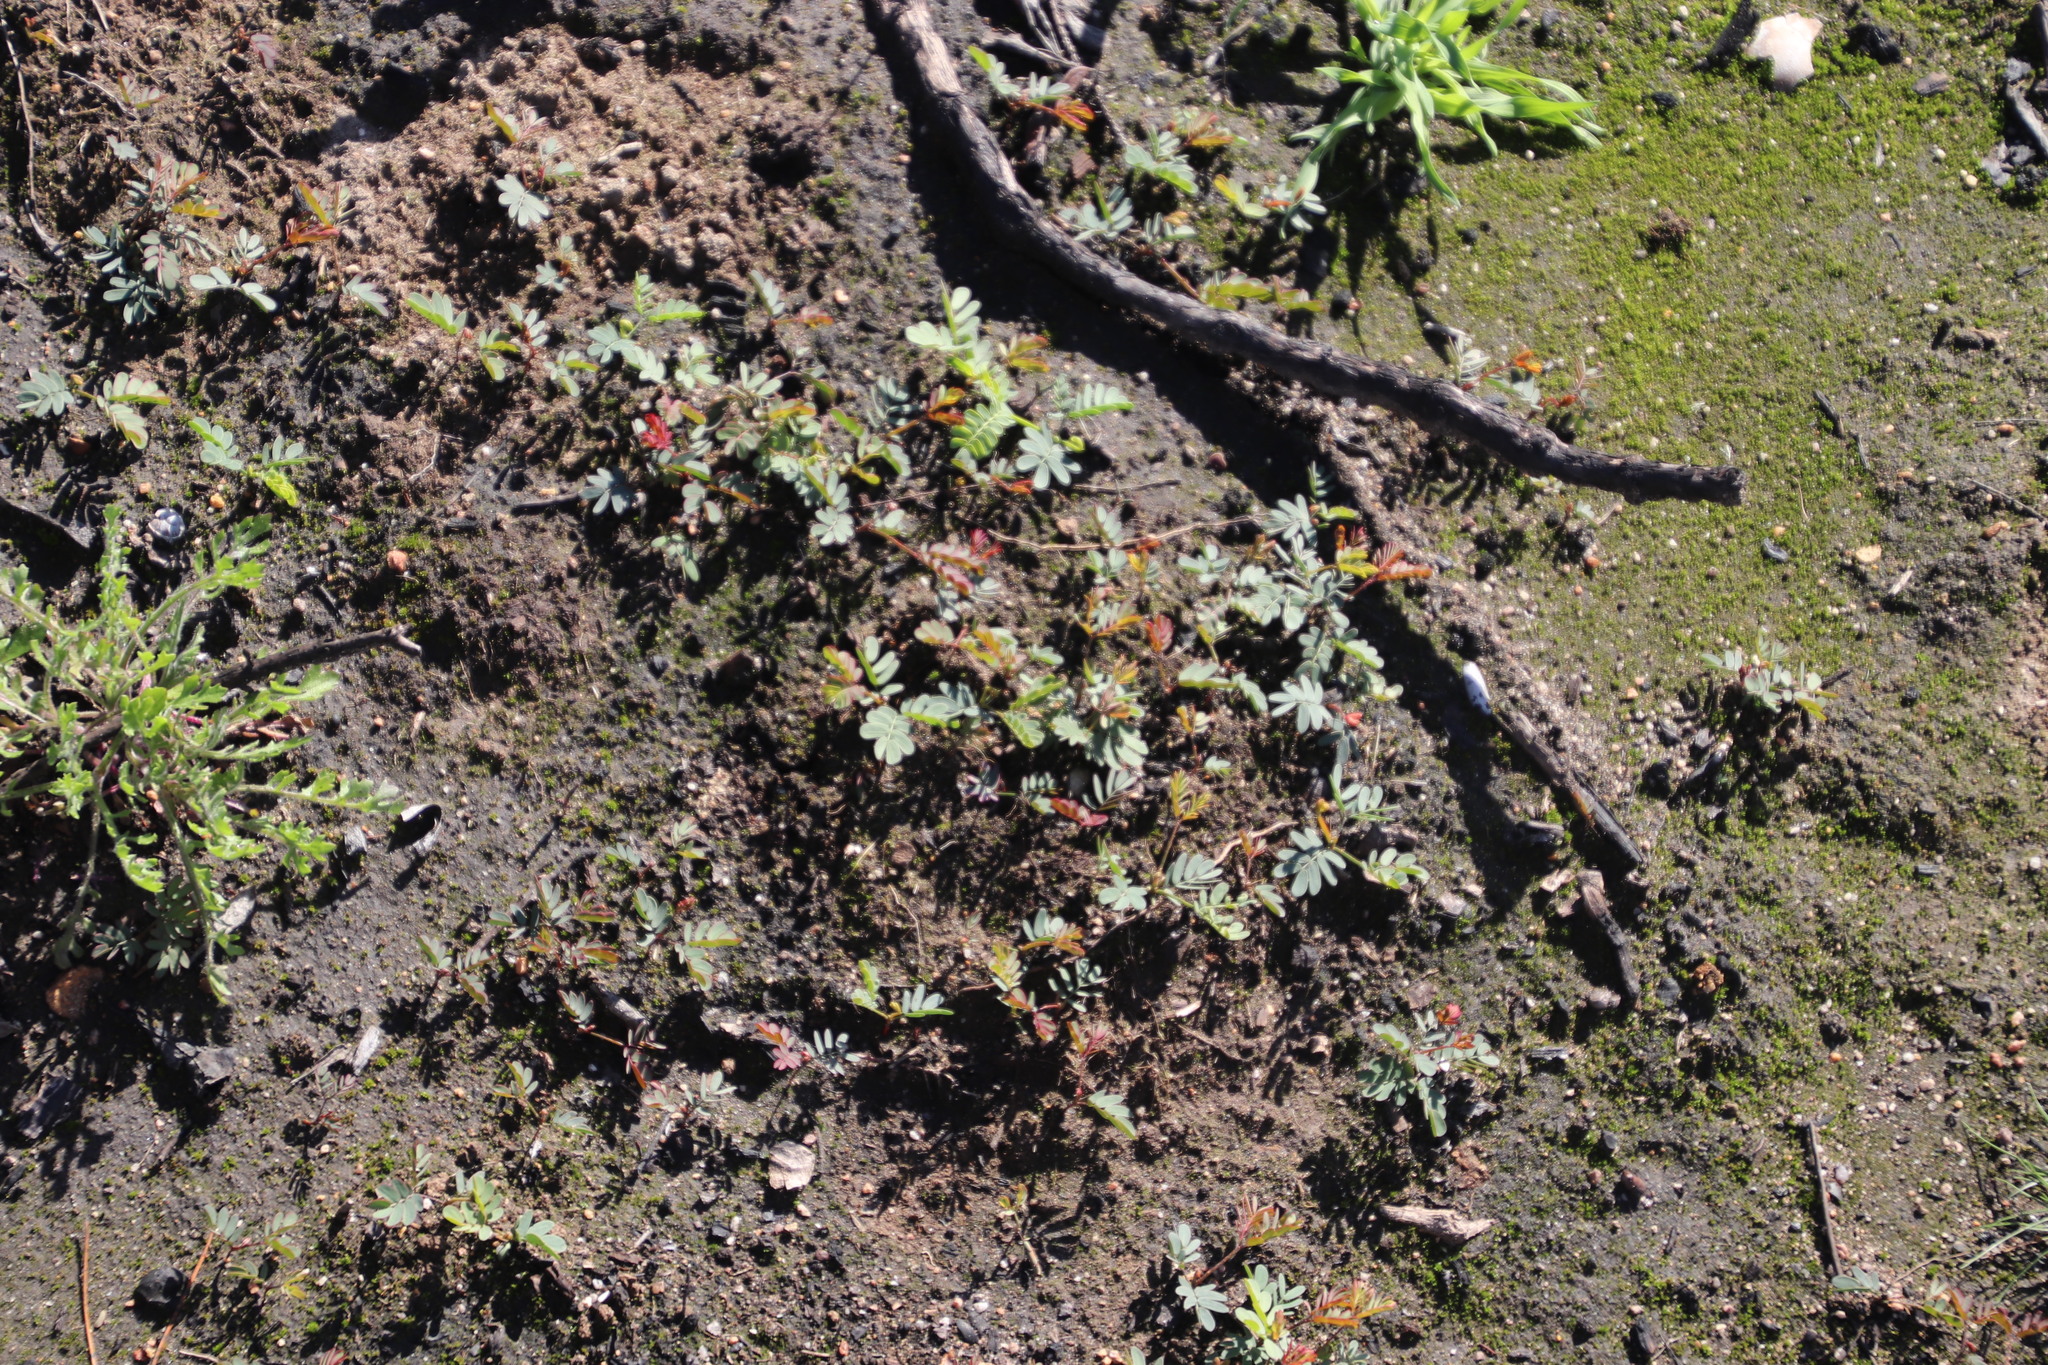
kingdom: Plantae
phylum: Tracheophyta
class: Magnoliopsida
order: Fabales
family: Fabaceae
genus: Acacia
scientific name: Acacia pycnantha
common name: Golden wattle
